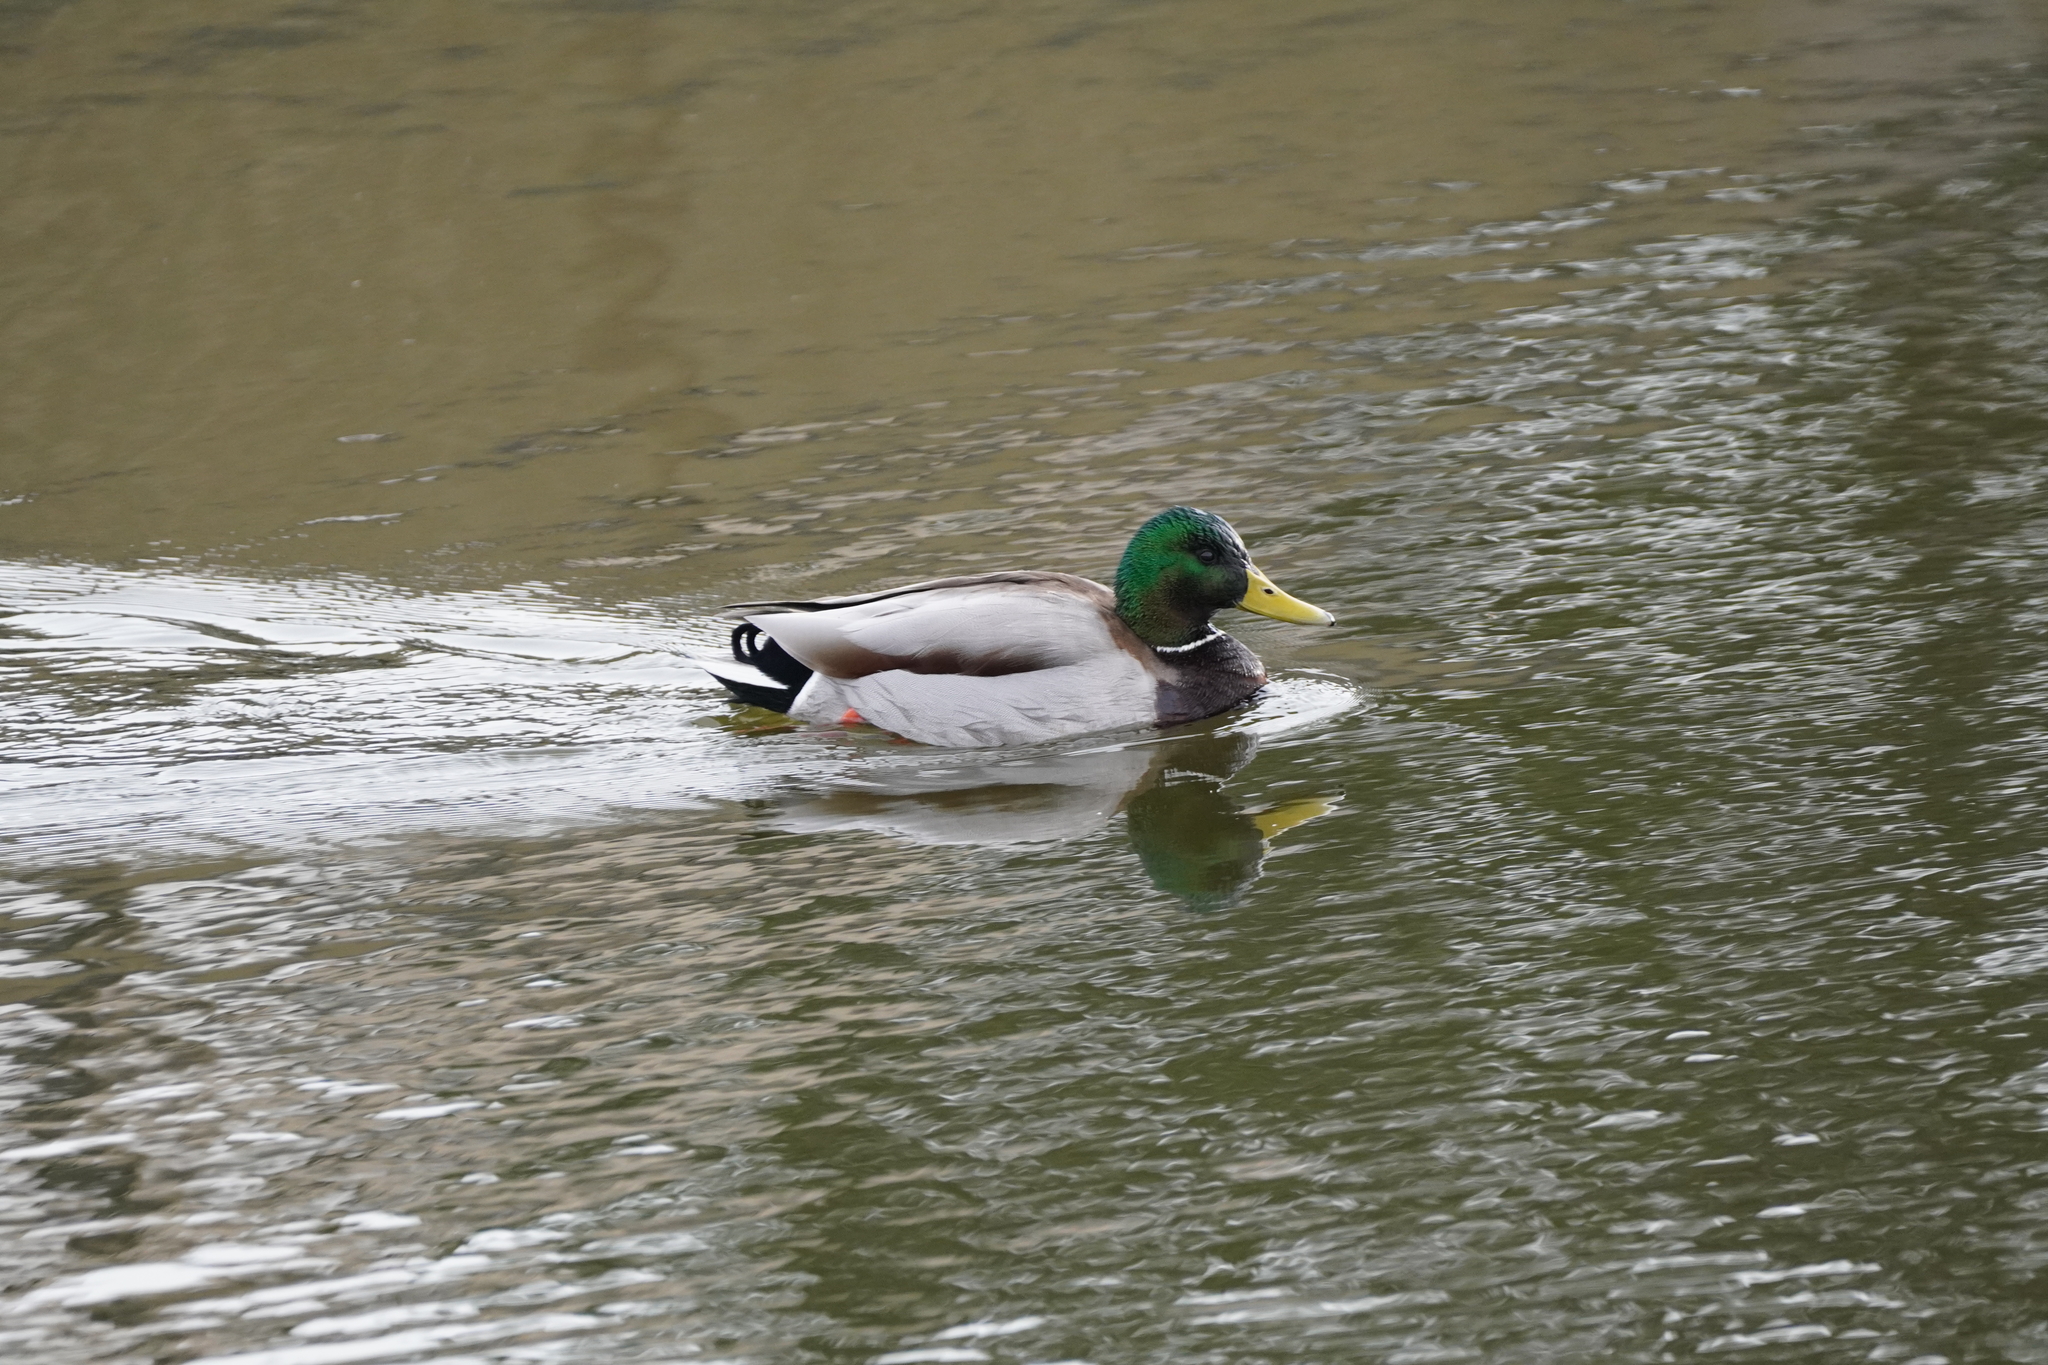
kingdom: Animalia
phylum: Chordata
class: Aves
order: Anseriformes
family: Anatidae
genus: Anas
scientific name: Anas platyrhynchos
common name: Mallard
